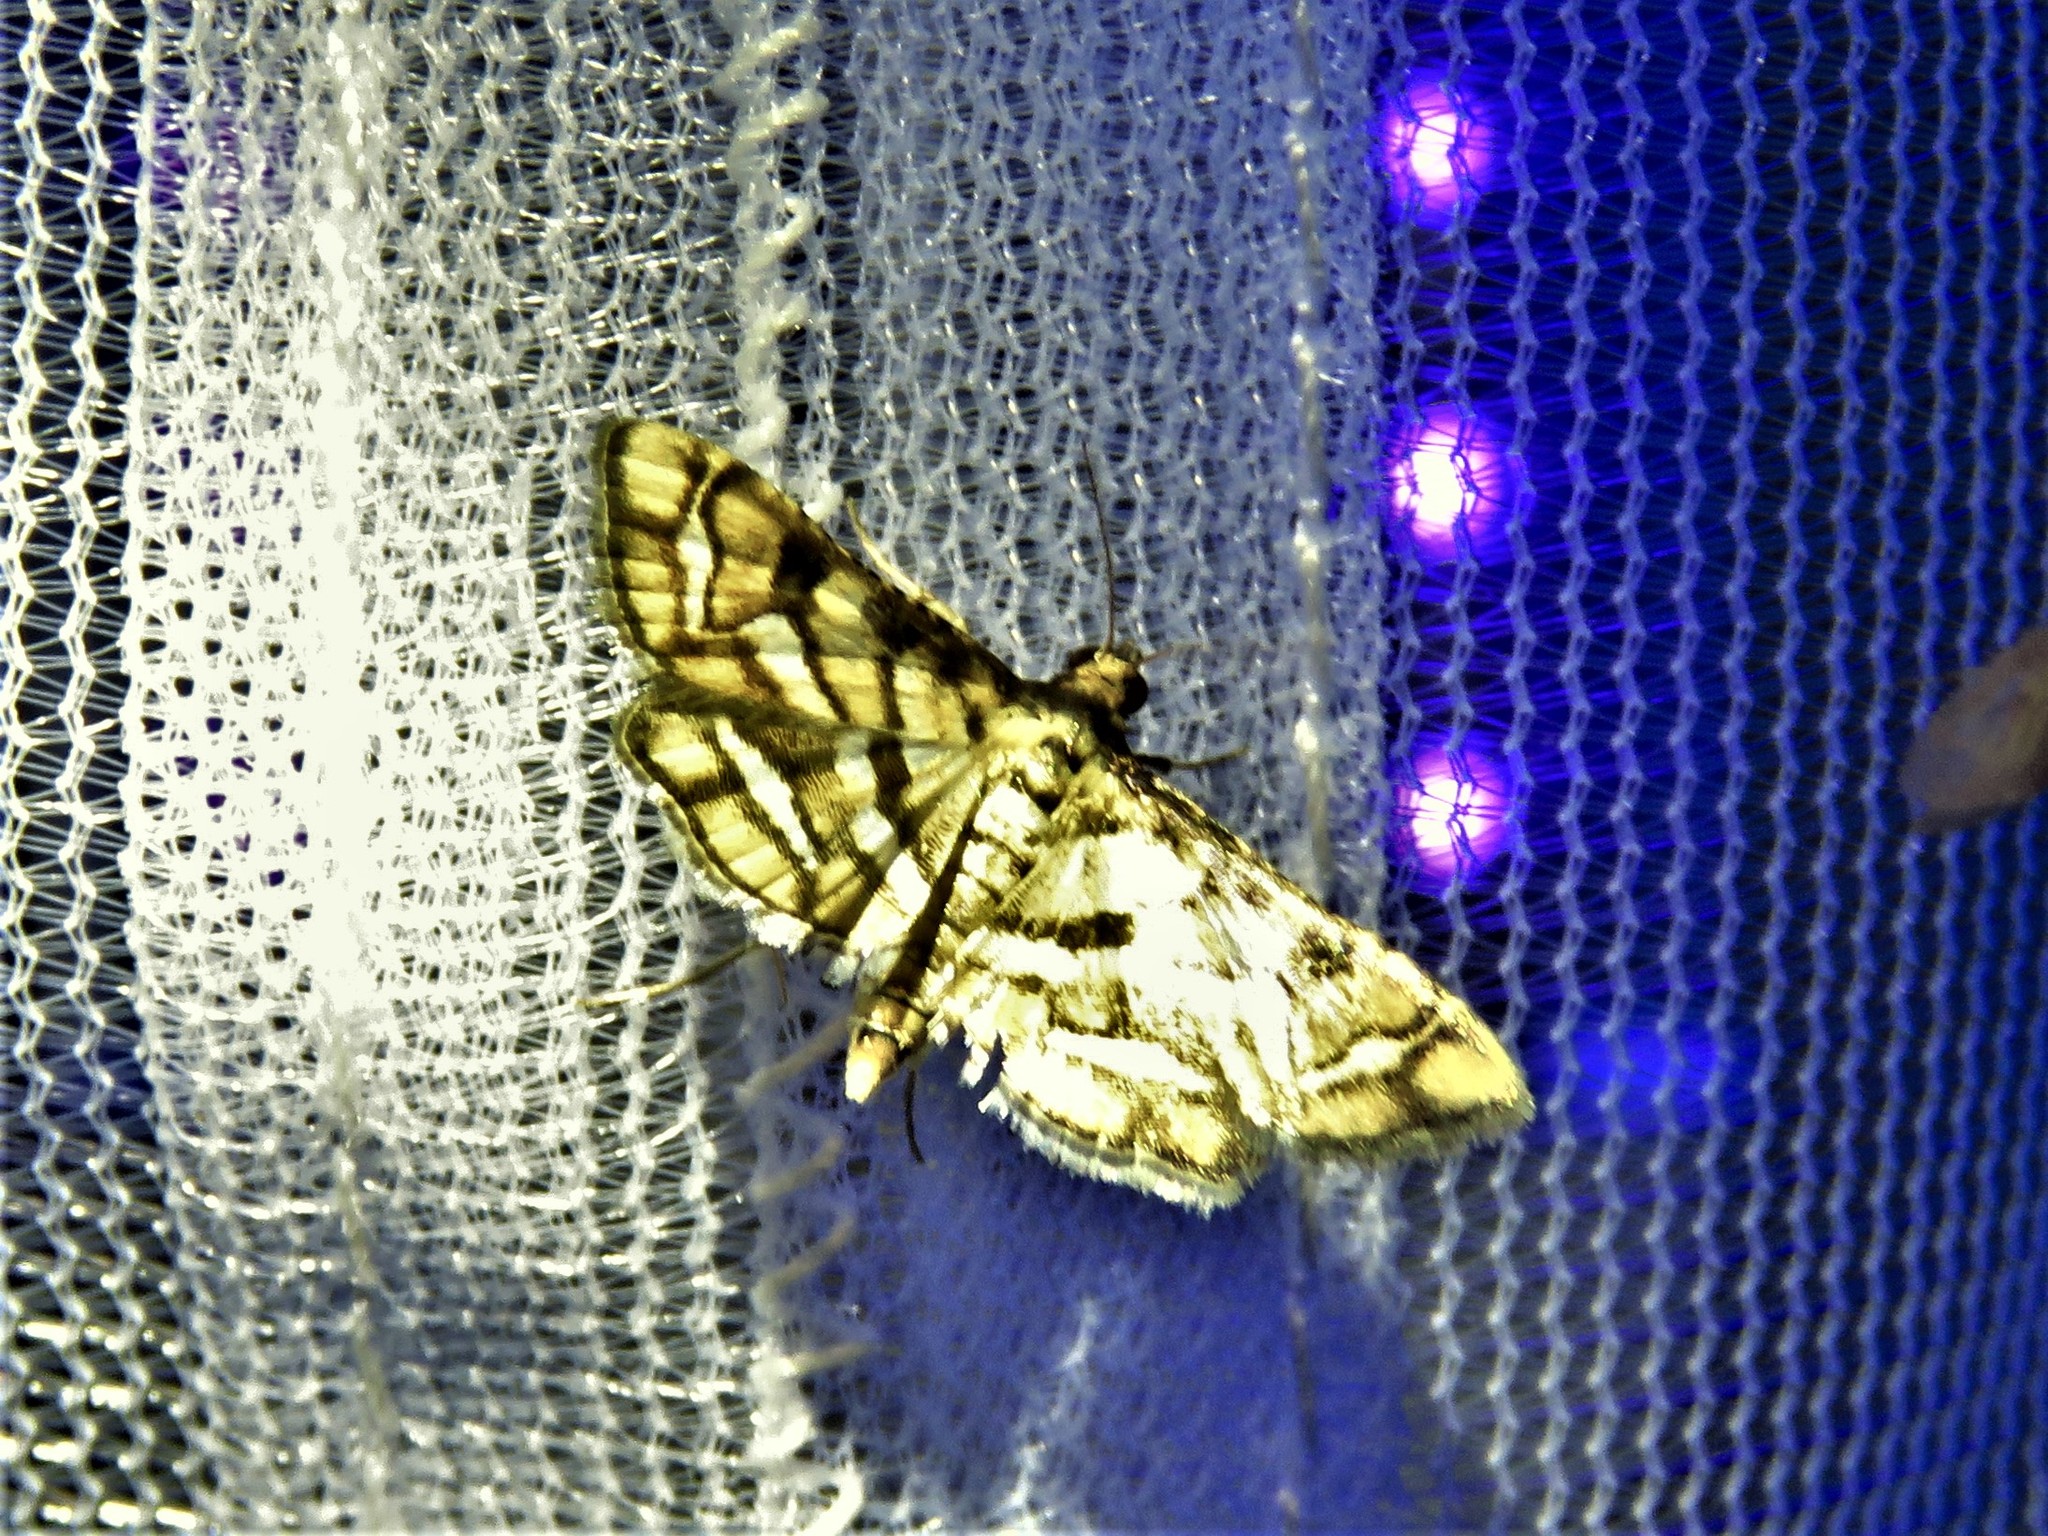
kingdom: Animalia
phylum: Arthropoda
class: Insecta
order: Lepidoptera
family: Crambidae
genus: Hileithia
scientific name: Hileithia magualis
